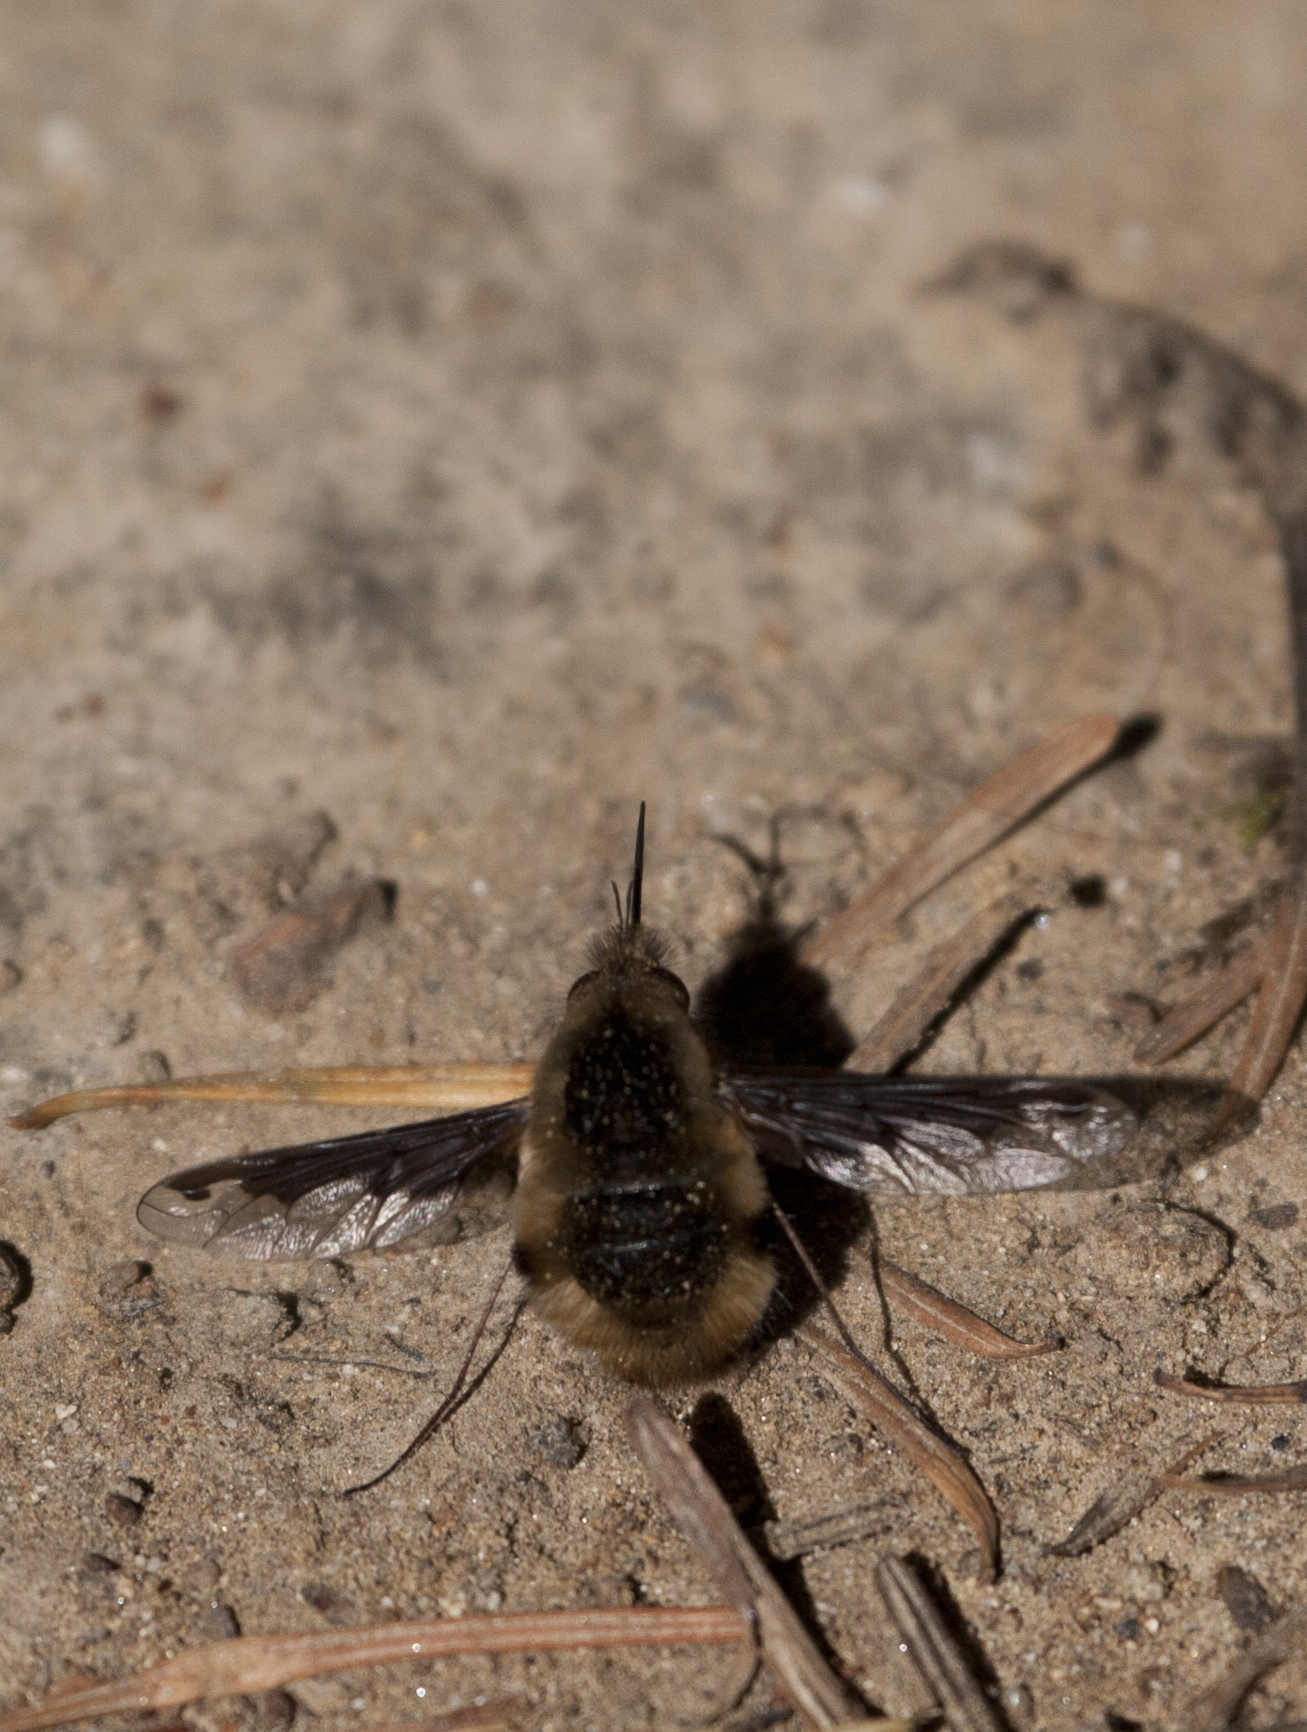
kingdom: Animalia
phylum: Arthropoda
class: Insecta
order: Diptera
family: Bombyliidae
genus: Bombylius
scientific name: Bombylius major
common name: Bee fly
